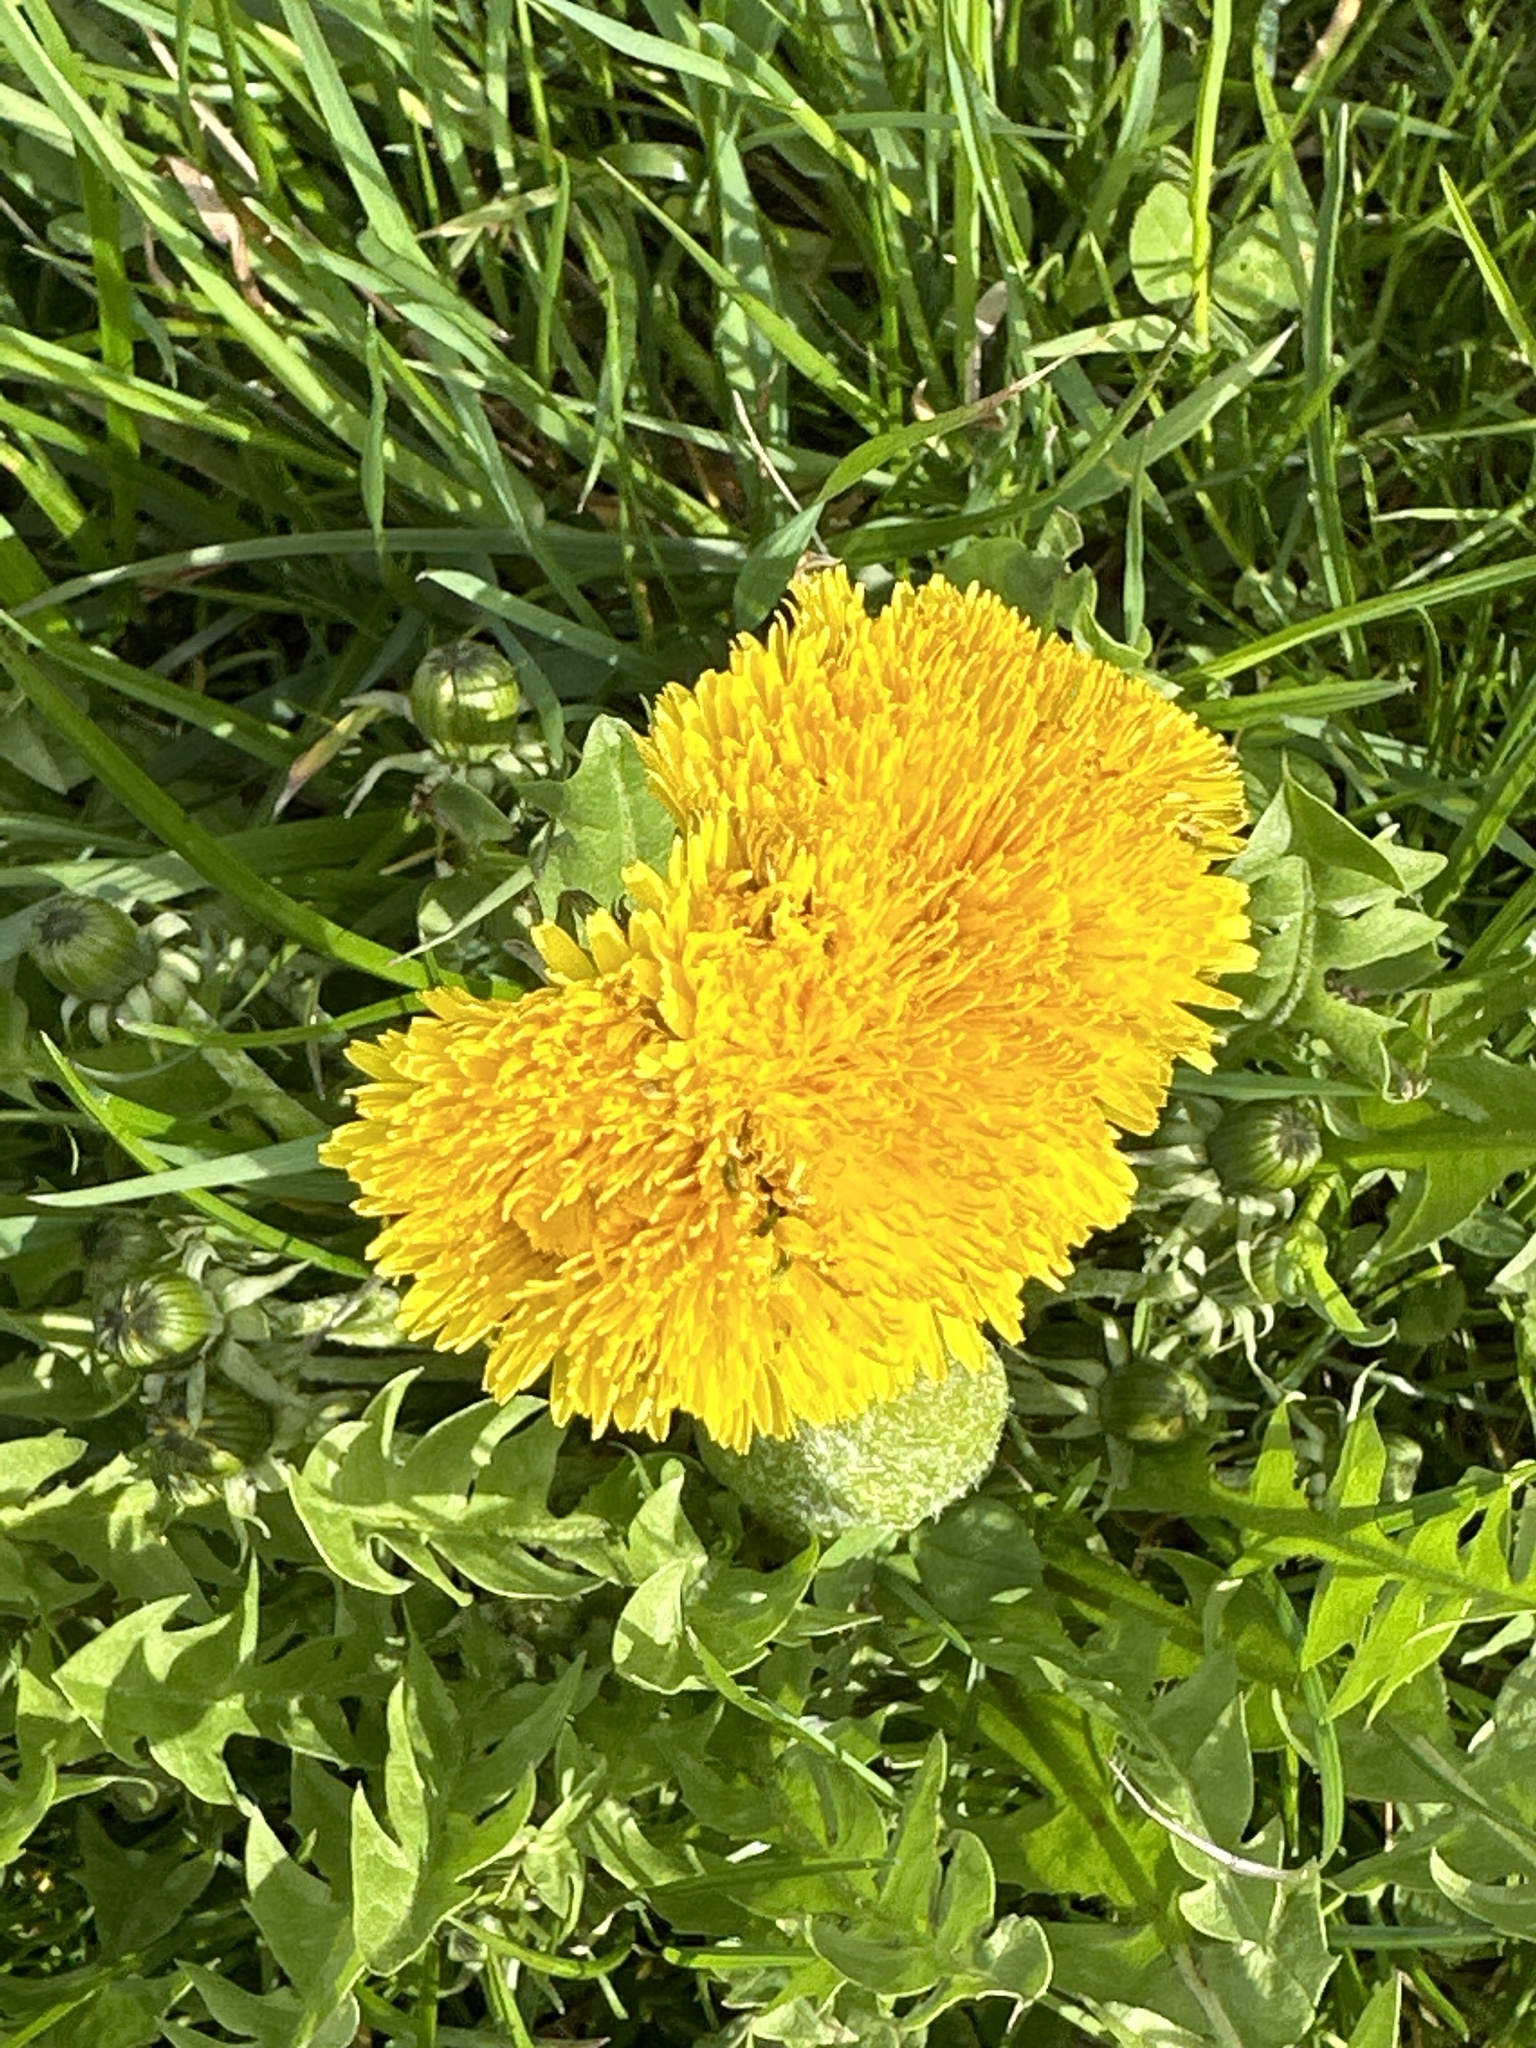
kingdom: Plantae
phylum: Tracheophyta
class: Magnoliopsida
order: Asterales
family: Asteraceae
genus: Taraxacum
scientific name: Taraxacum
